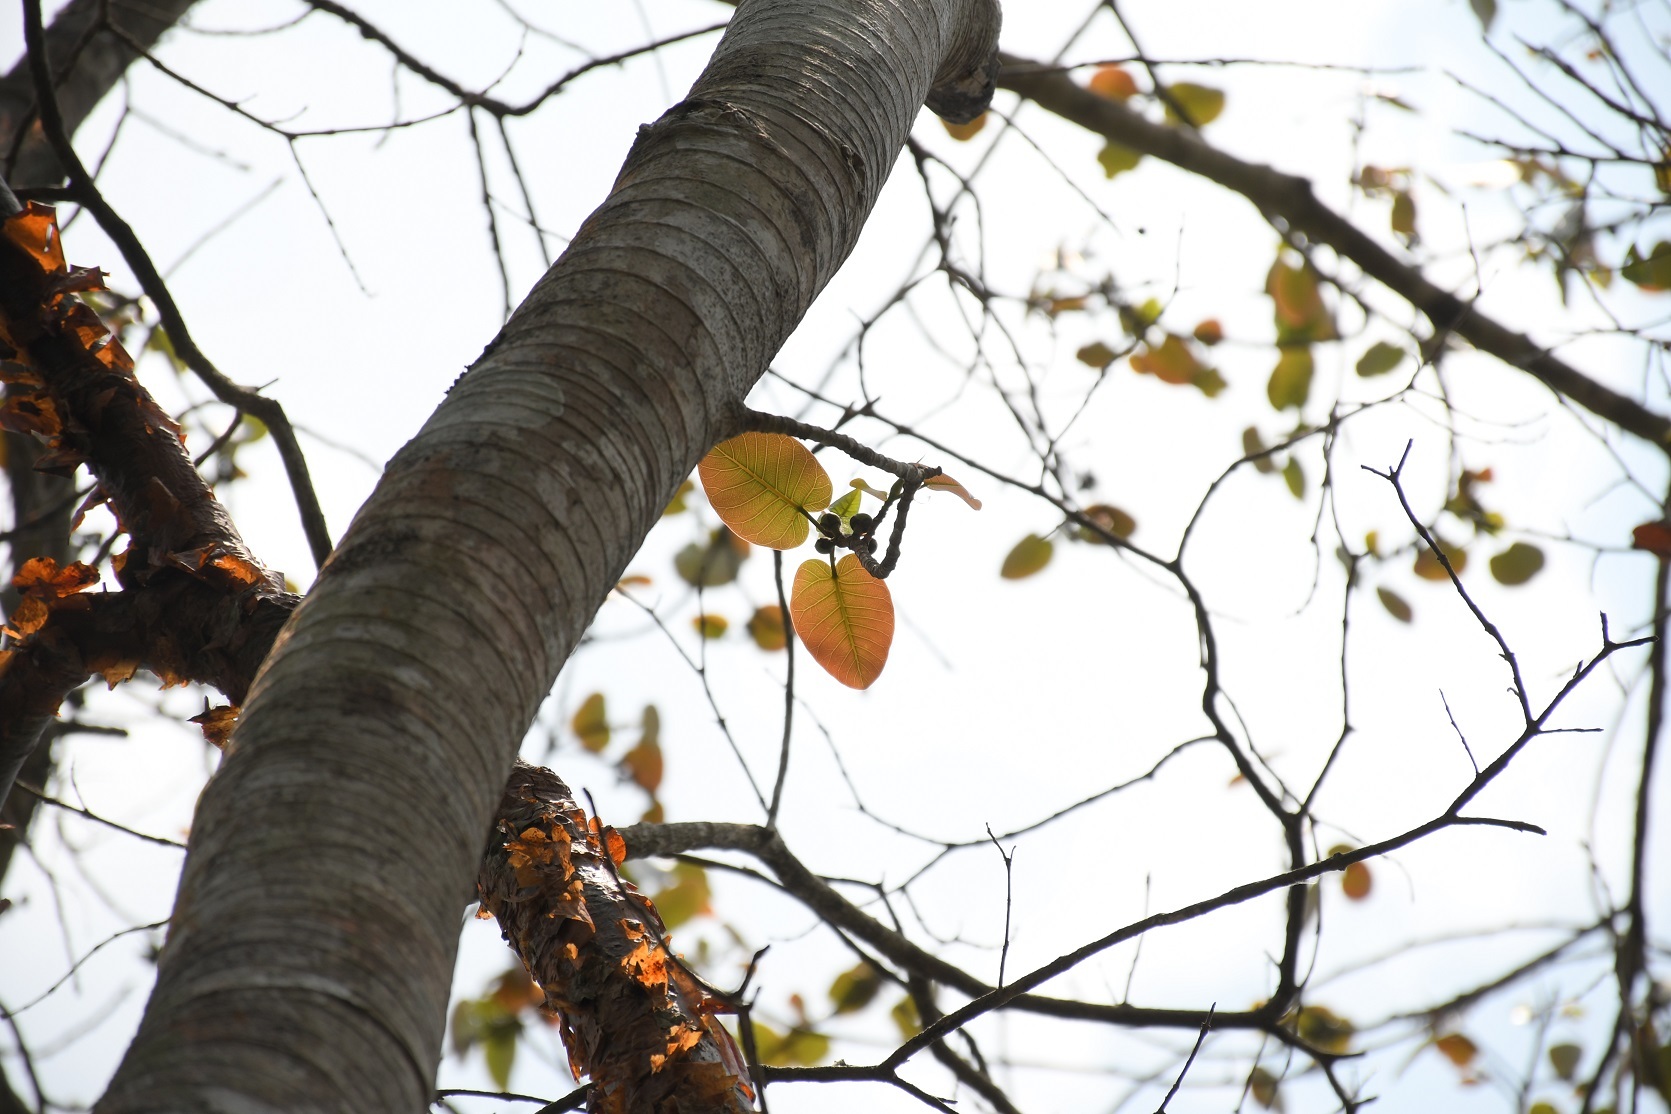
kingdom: Plantae
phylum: Tracheophyta
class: Magnoliopsida
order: Rosales
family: Moraceae
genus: Ficus
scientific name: Ficus aurea
